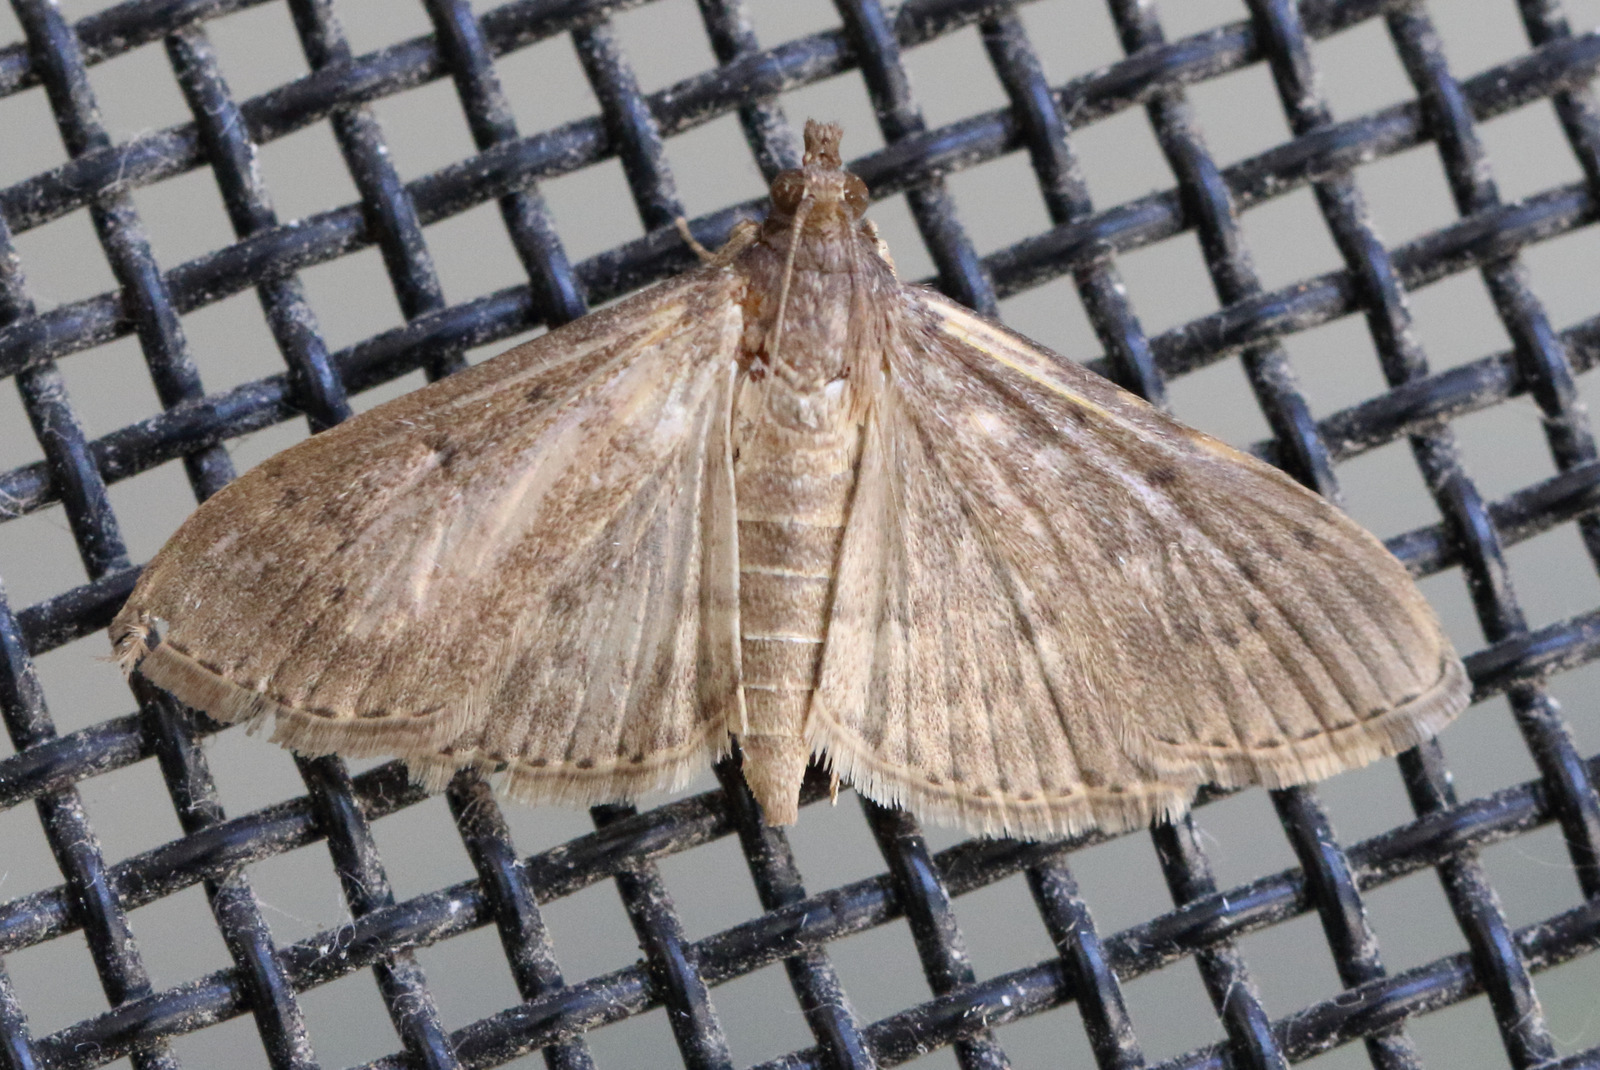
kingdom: Animalia
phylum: Arthropoda
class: Insecta
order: Lepidoptera
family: Crambidae
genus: Herpetogramma
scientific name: Herpetogramma licarsisalis
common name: Grass webworm
